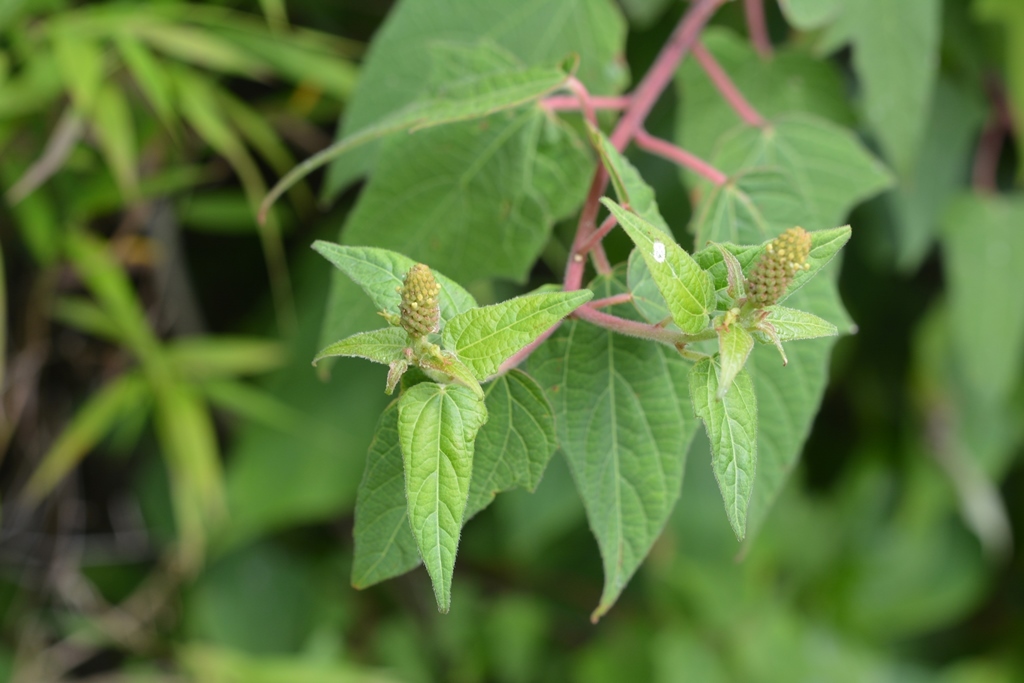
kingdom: Plantae
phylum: Tracheophyta
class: Magnoliopsida
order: Malpighiales
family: Euphorbiaceae
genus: Dalembertia
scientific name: Dalembertia triangularis
